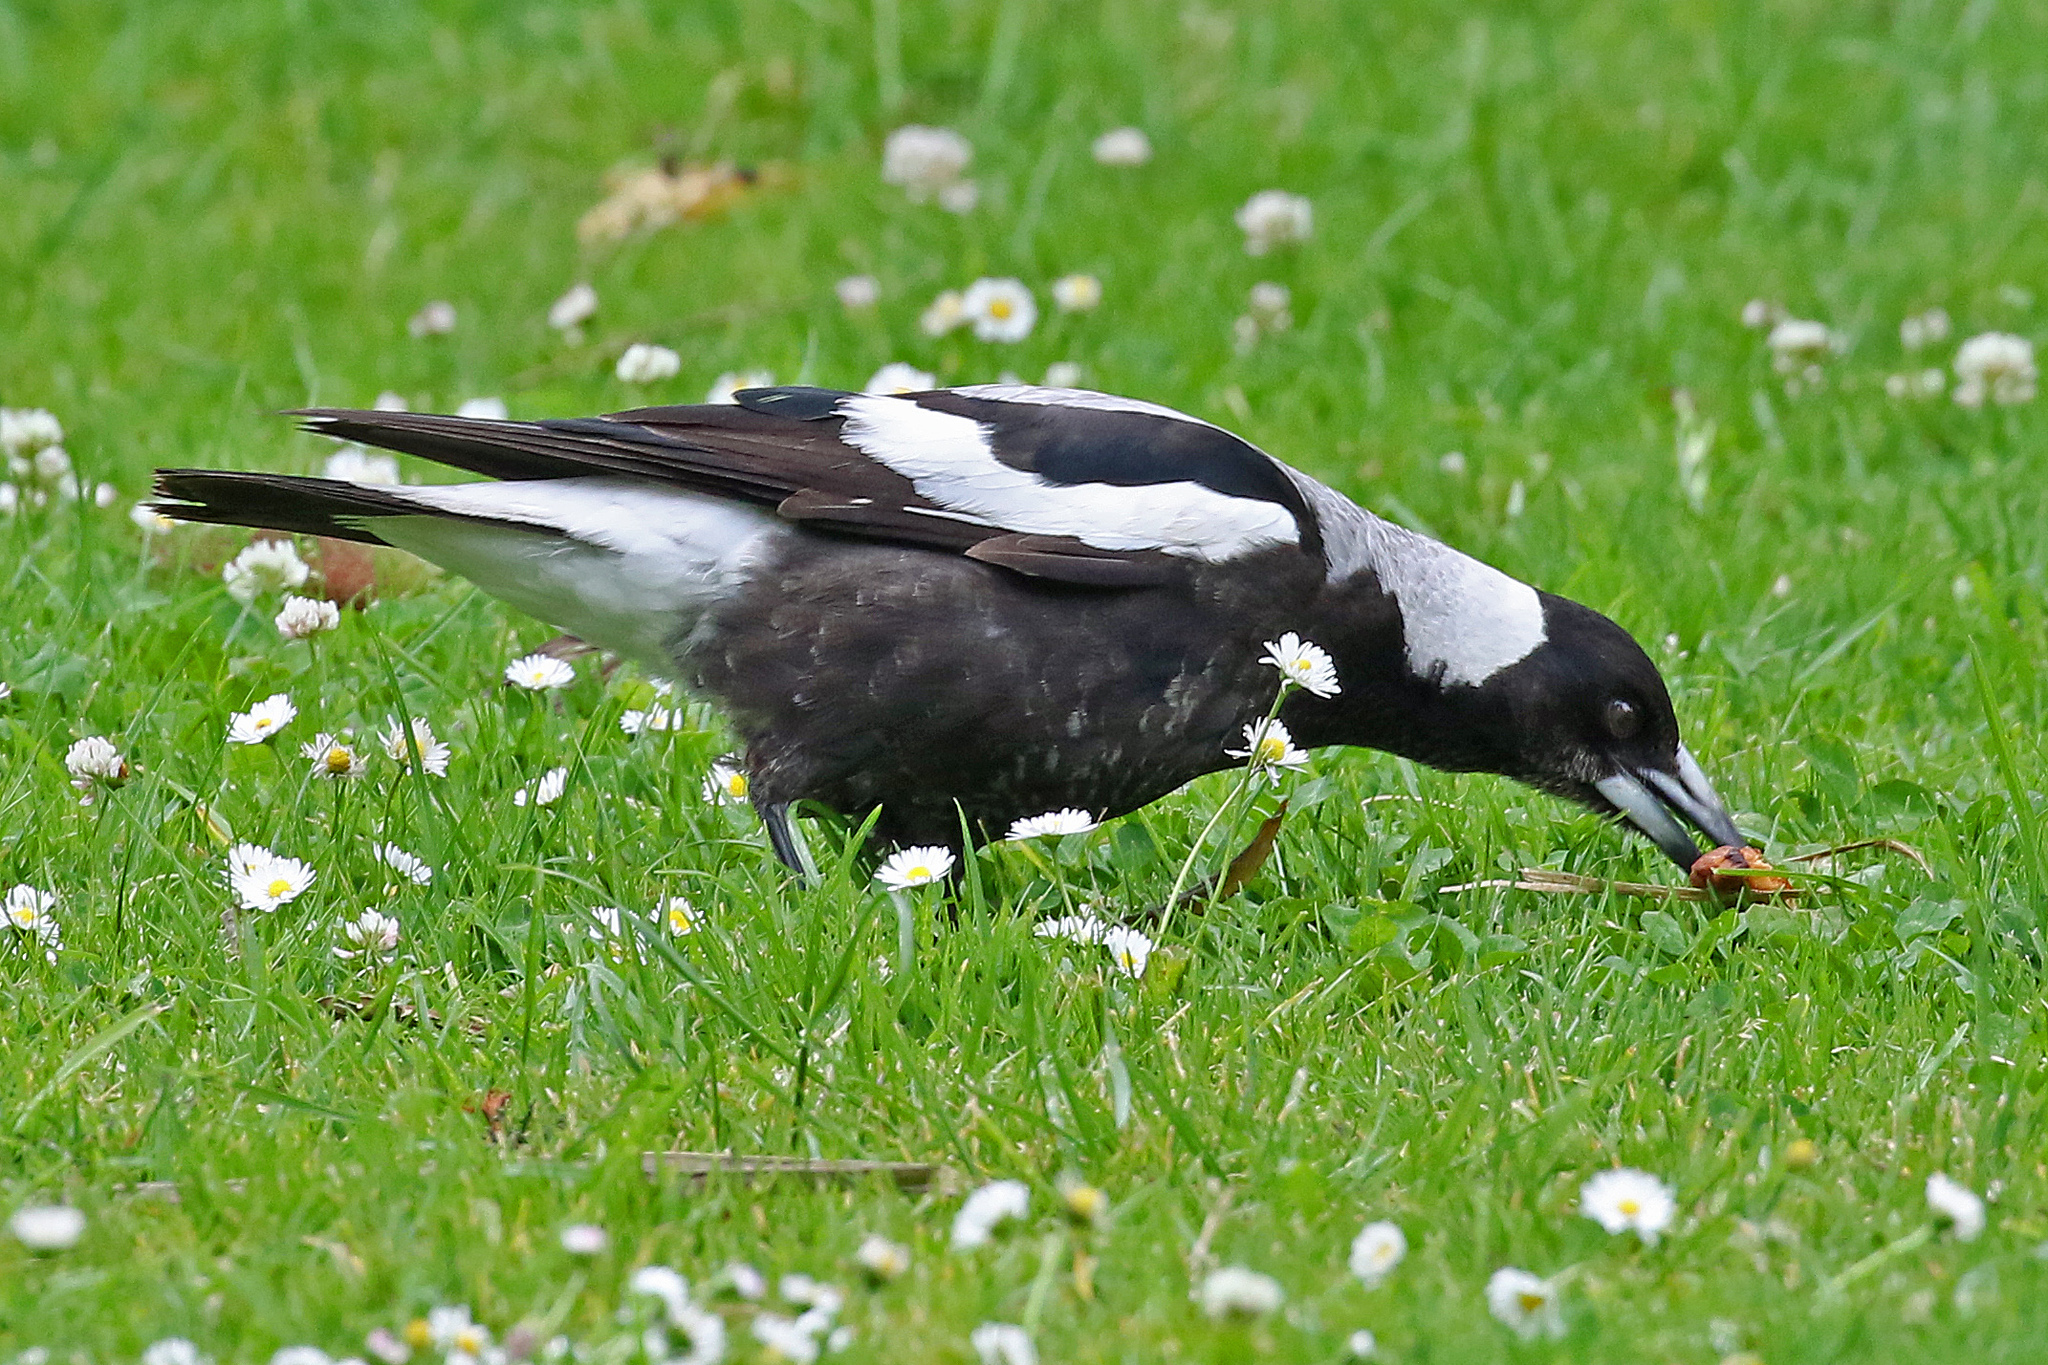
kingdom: Animalia
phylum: Chordata
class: Aves
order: Passeriformes
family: Cracticidae
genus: Gymnorhina
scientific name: Gymnorhina tibicen
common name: Australian magpie
